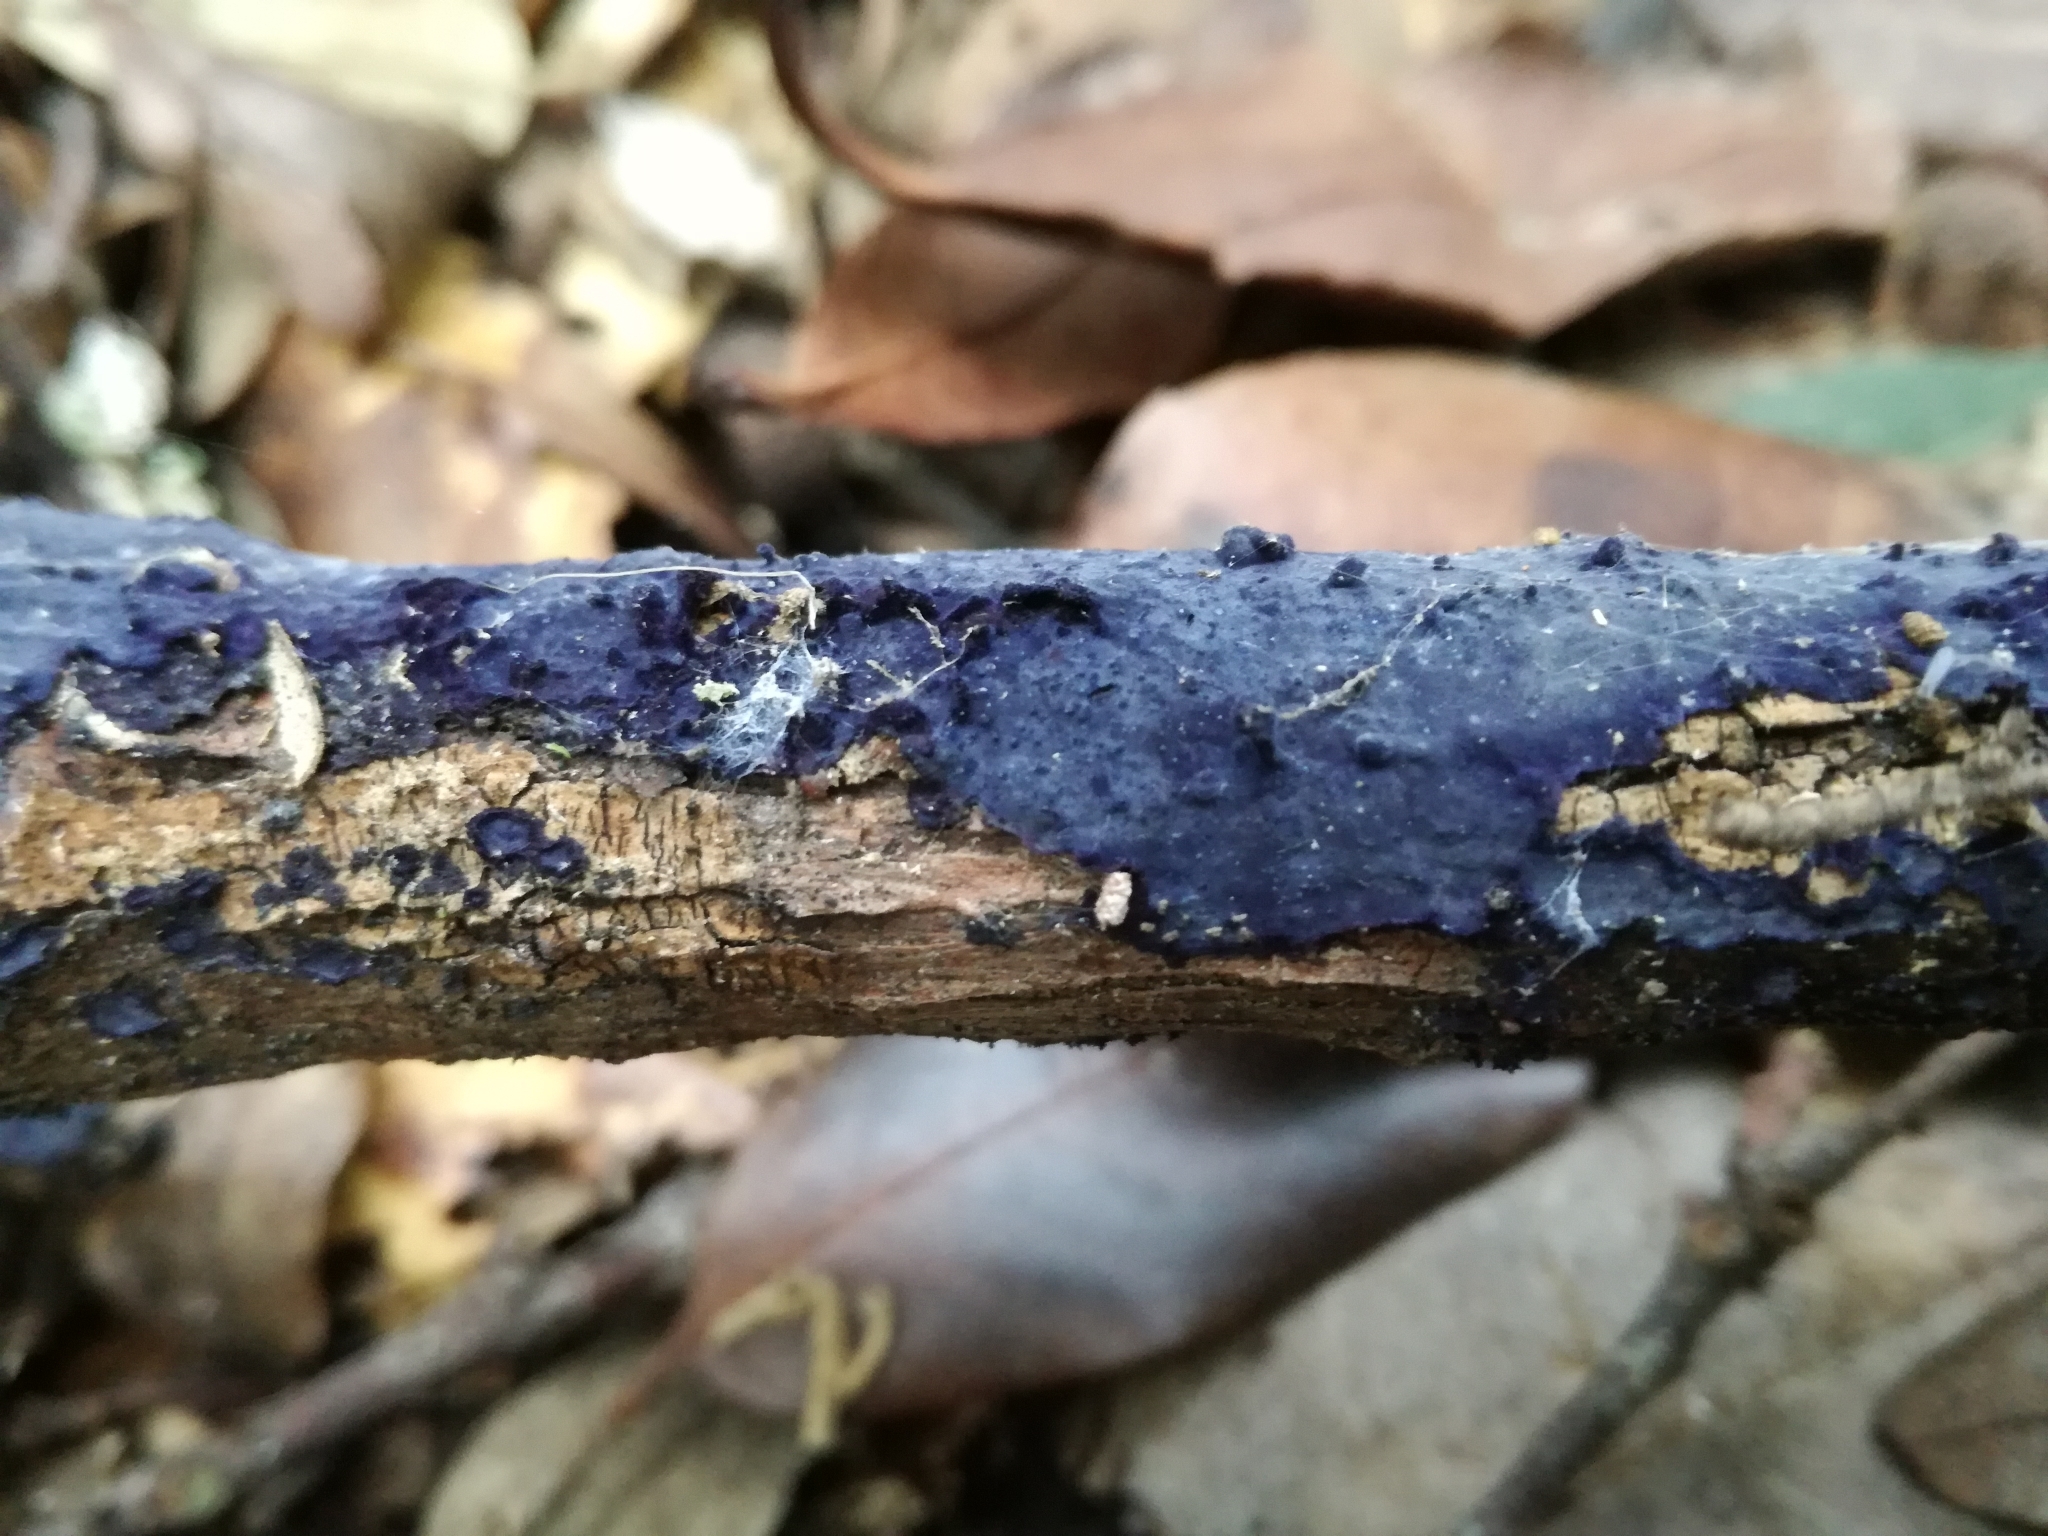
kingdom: Fungi
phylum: Basidiomycota
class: Agaricomycetes
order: Polyporales
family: Phanerochaetaceae
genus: Terana
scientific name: Terana coerulea
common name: Cobalt crust
